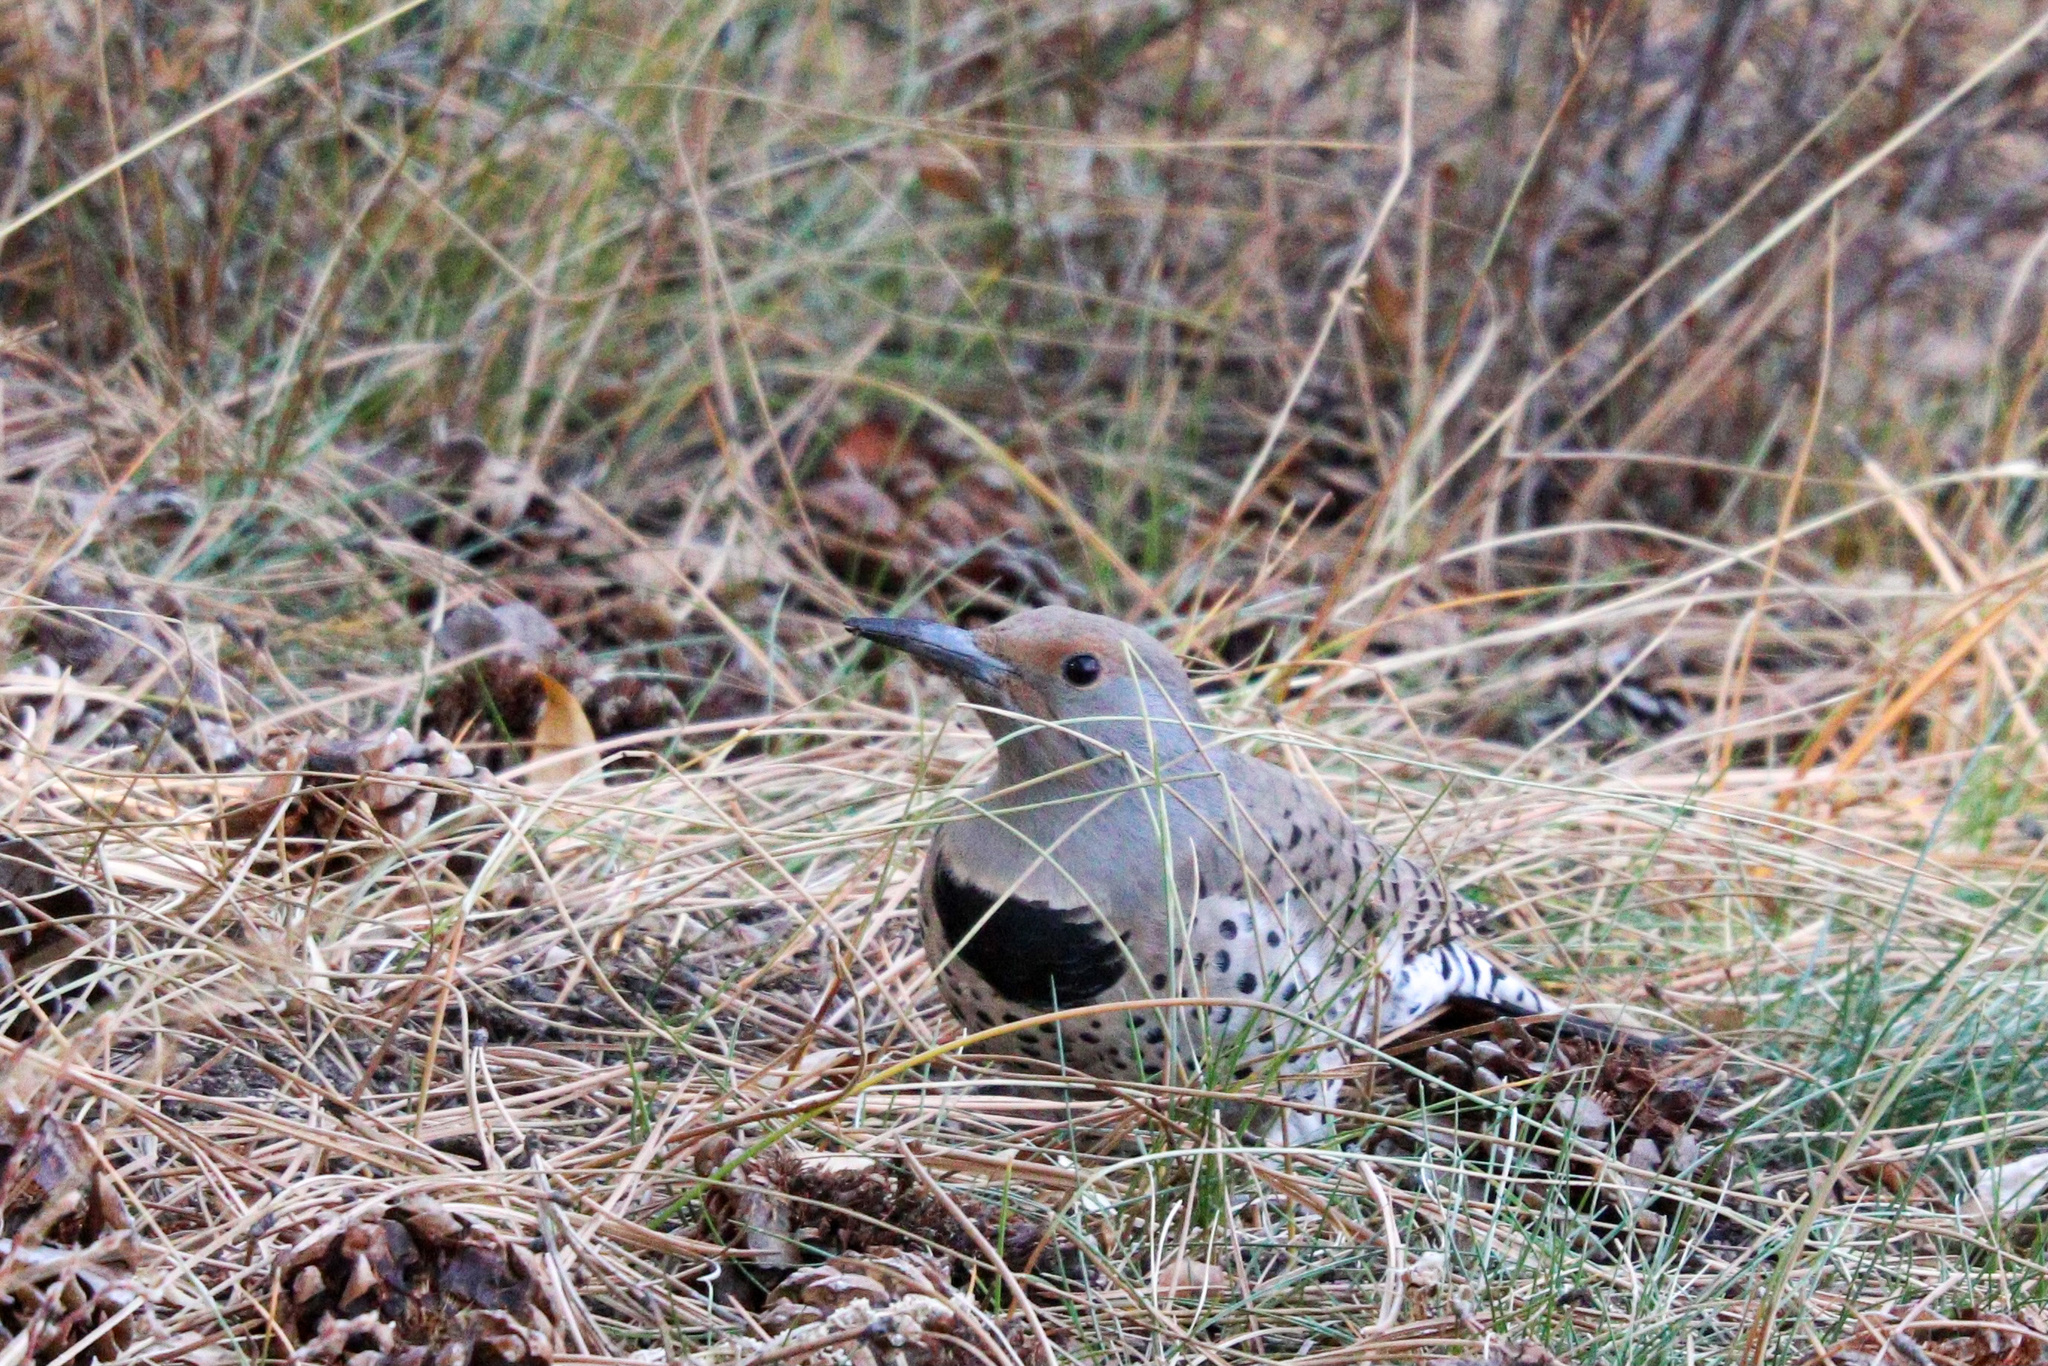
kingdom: Animalia
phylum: Chordata
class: Aves
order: Piciformes
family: Picidae
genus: Colaptes
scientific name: Colaptes auratus
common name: Northern flicker
